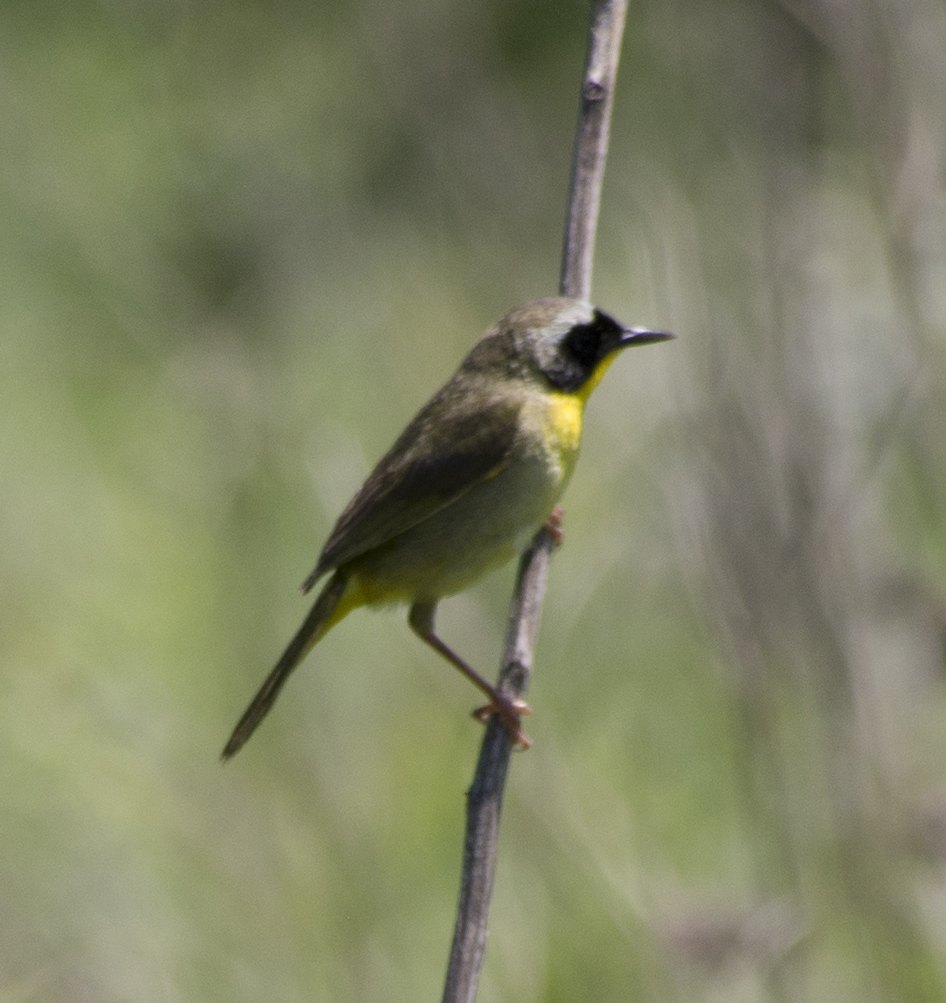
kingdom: Animalia
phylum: Chordata
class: Aves
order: Passeriformes
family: Parulidae
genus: Geothlypis
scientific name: Geothlypis trichas
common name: Common yellowthroat
